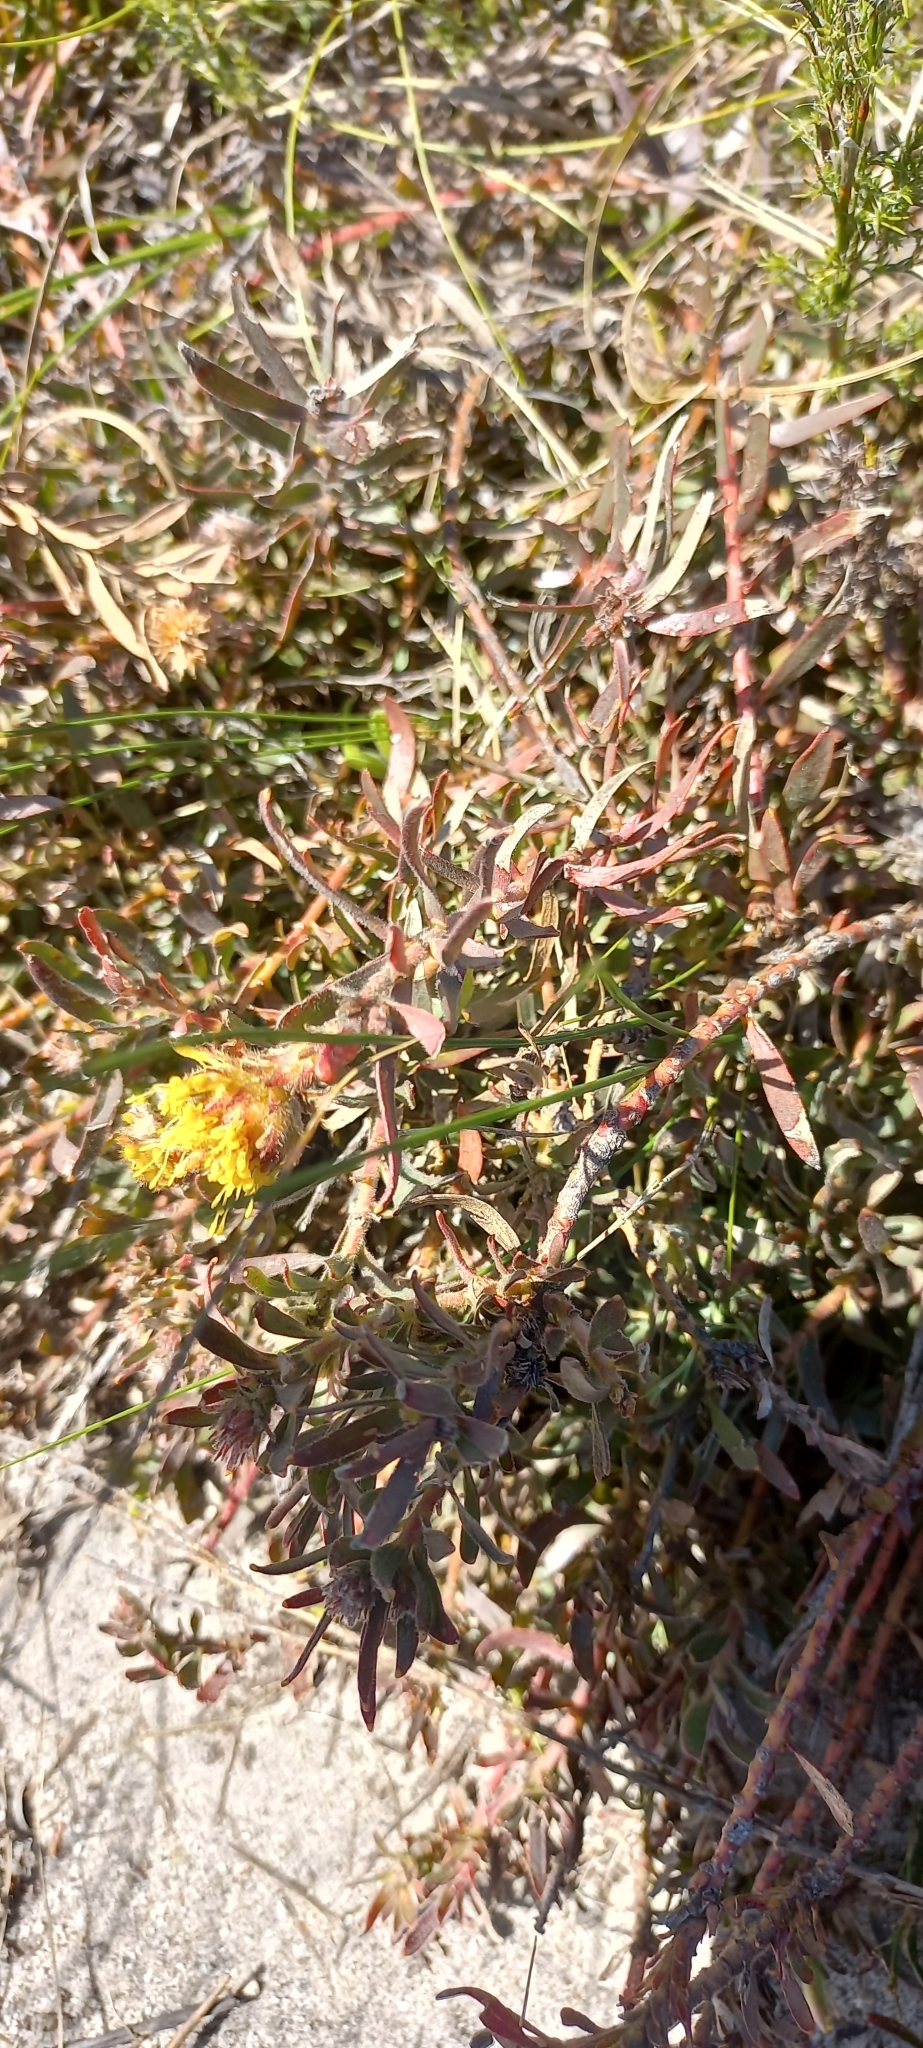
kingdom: Plantae
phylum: Tracheophyta
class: Magnoliopsida
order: Proteales
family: Proteaceae
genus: Leucospermum
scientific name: Leucospermum prostratum
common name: Yellow-trailing pincushion
